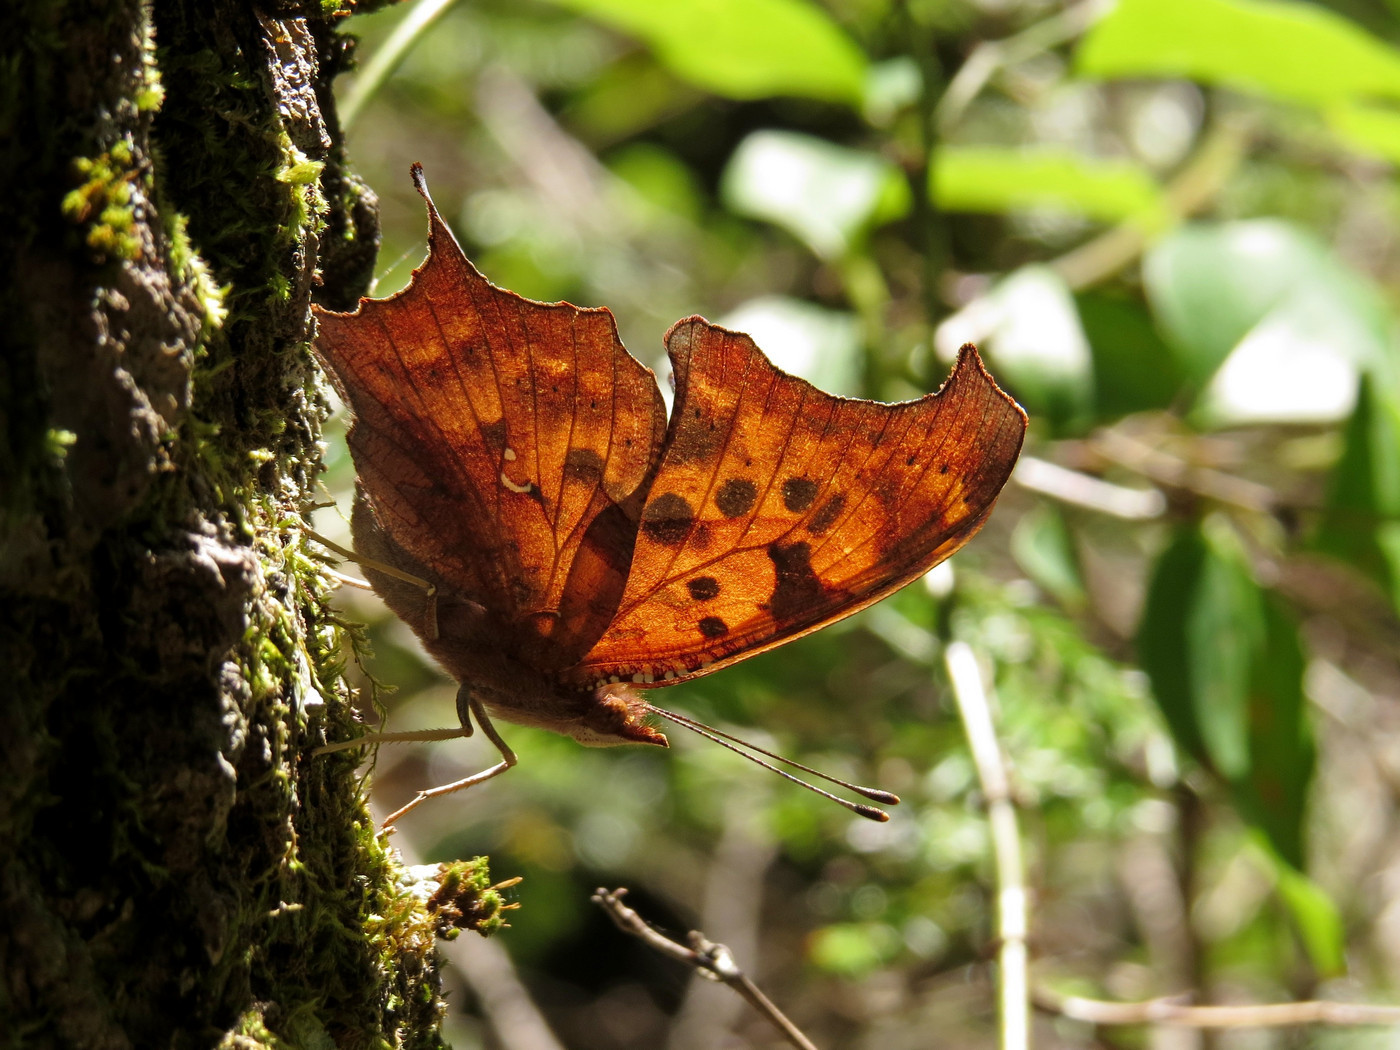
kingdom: Animalia
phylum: Arthropoda
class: Insecta
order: Lepidoptera
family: Nymphalidae
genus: Polygonia
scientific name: Polygonia interrogationis
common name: Question mark
